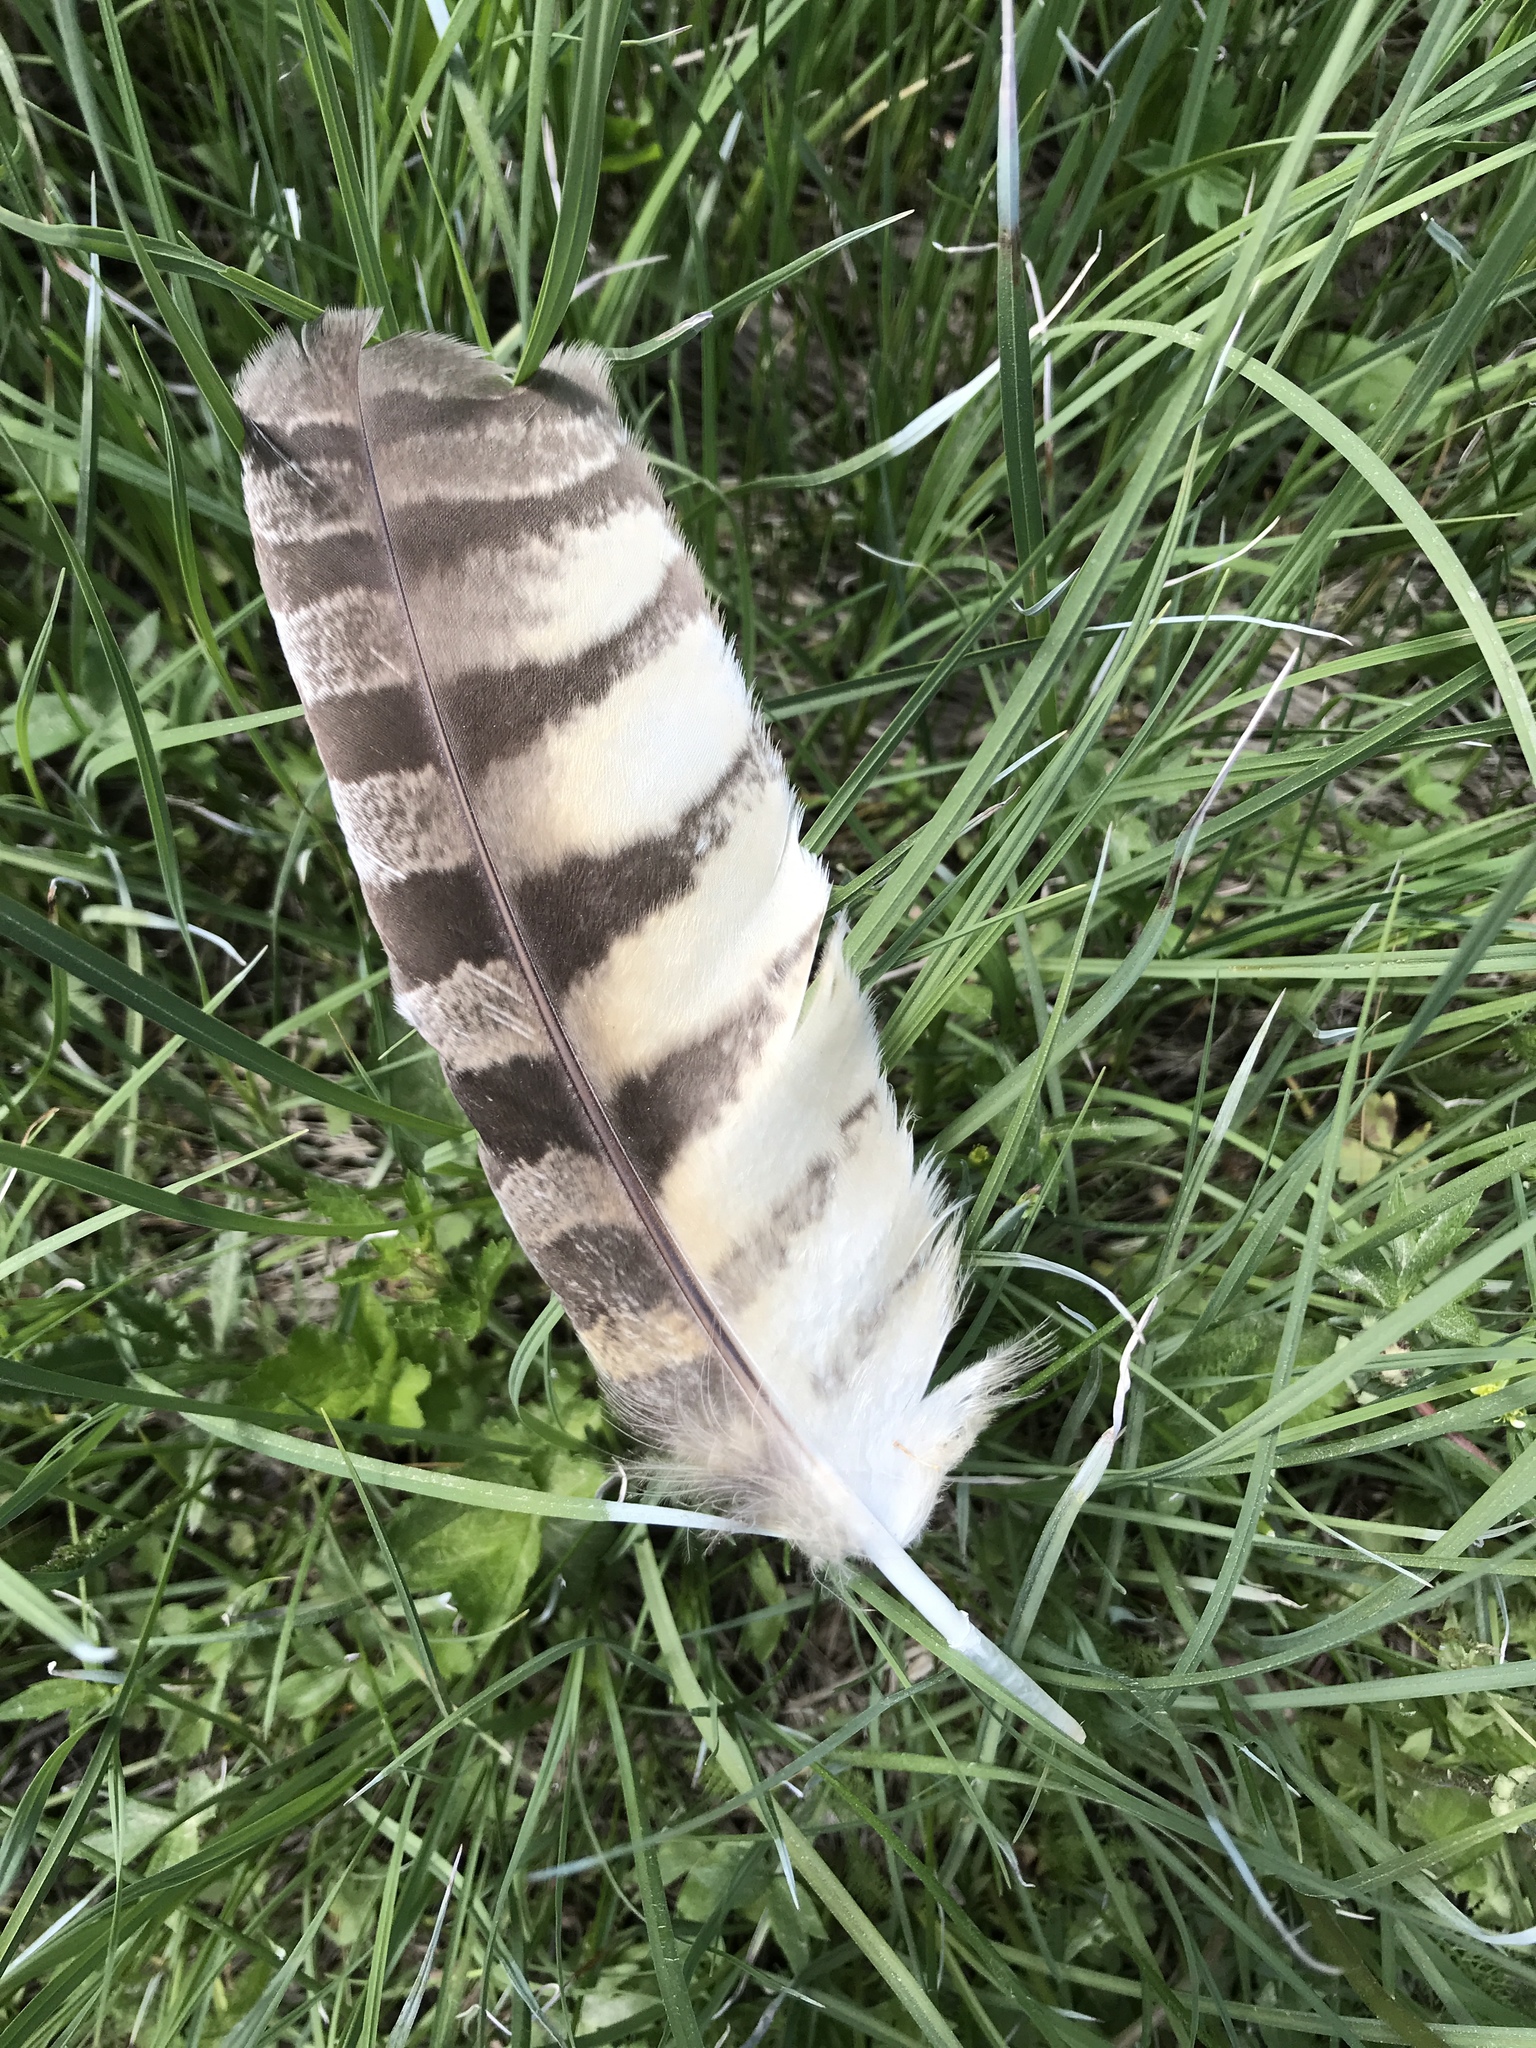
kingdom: Animalia
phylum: Chordata
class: Aves
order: Strigiformes
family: Strigidae
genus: Bubo
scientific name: Bubo virginianus
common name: Great horned owl
